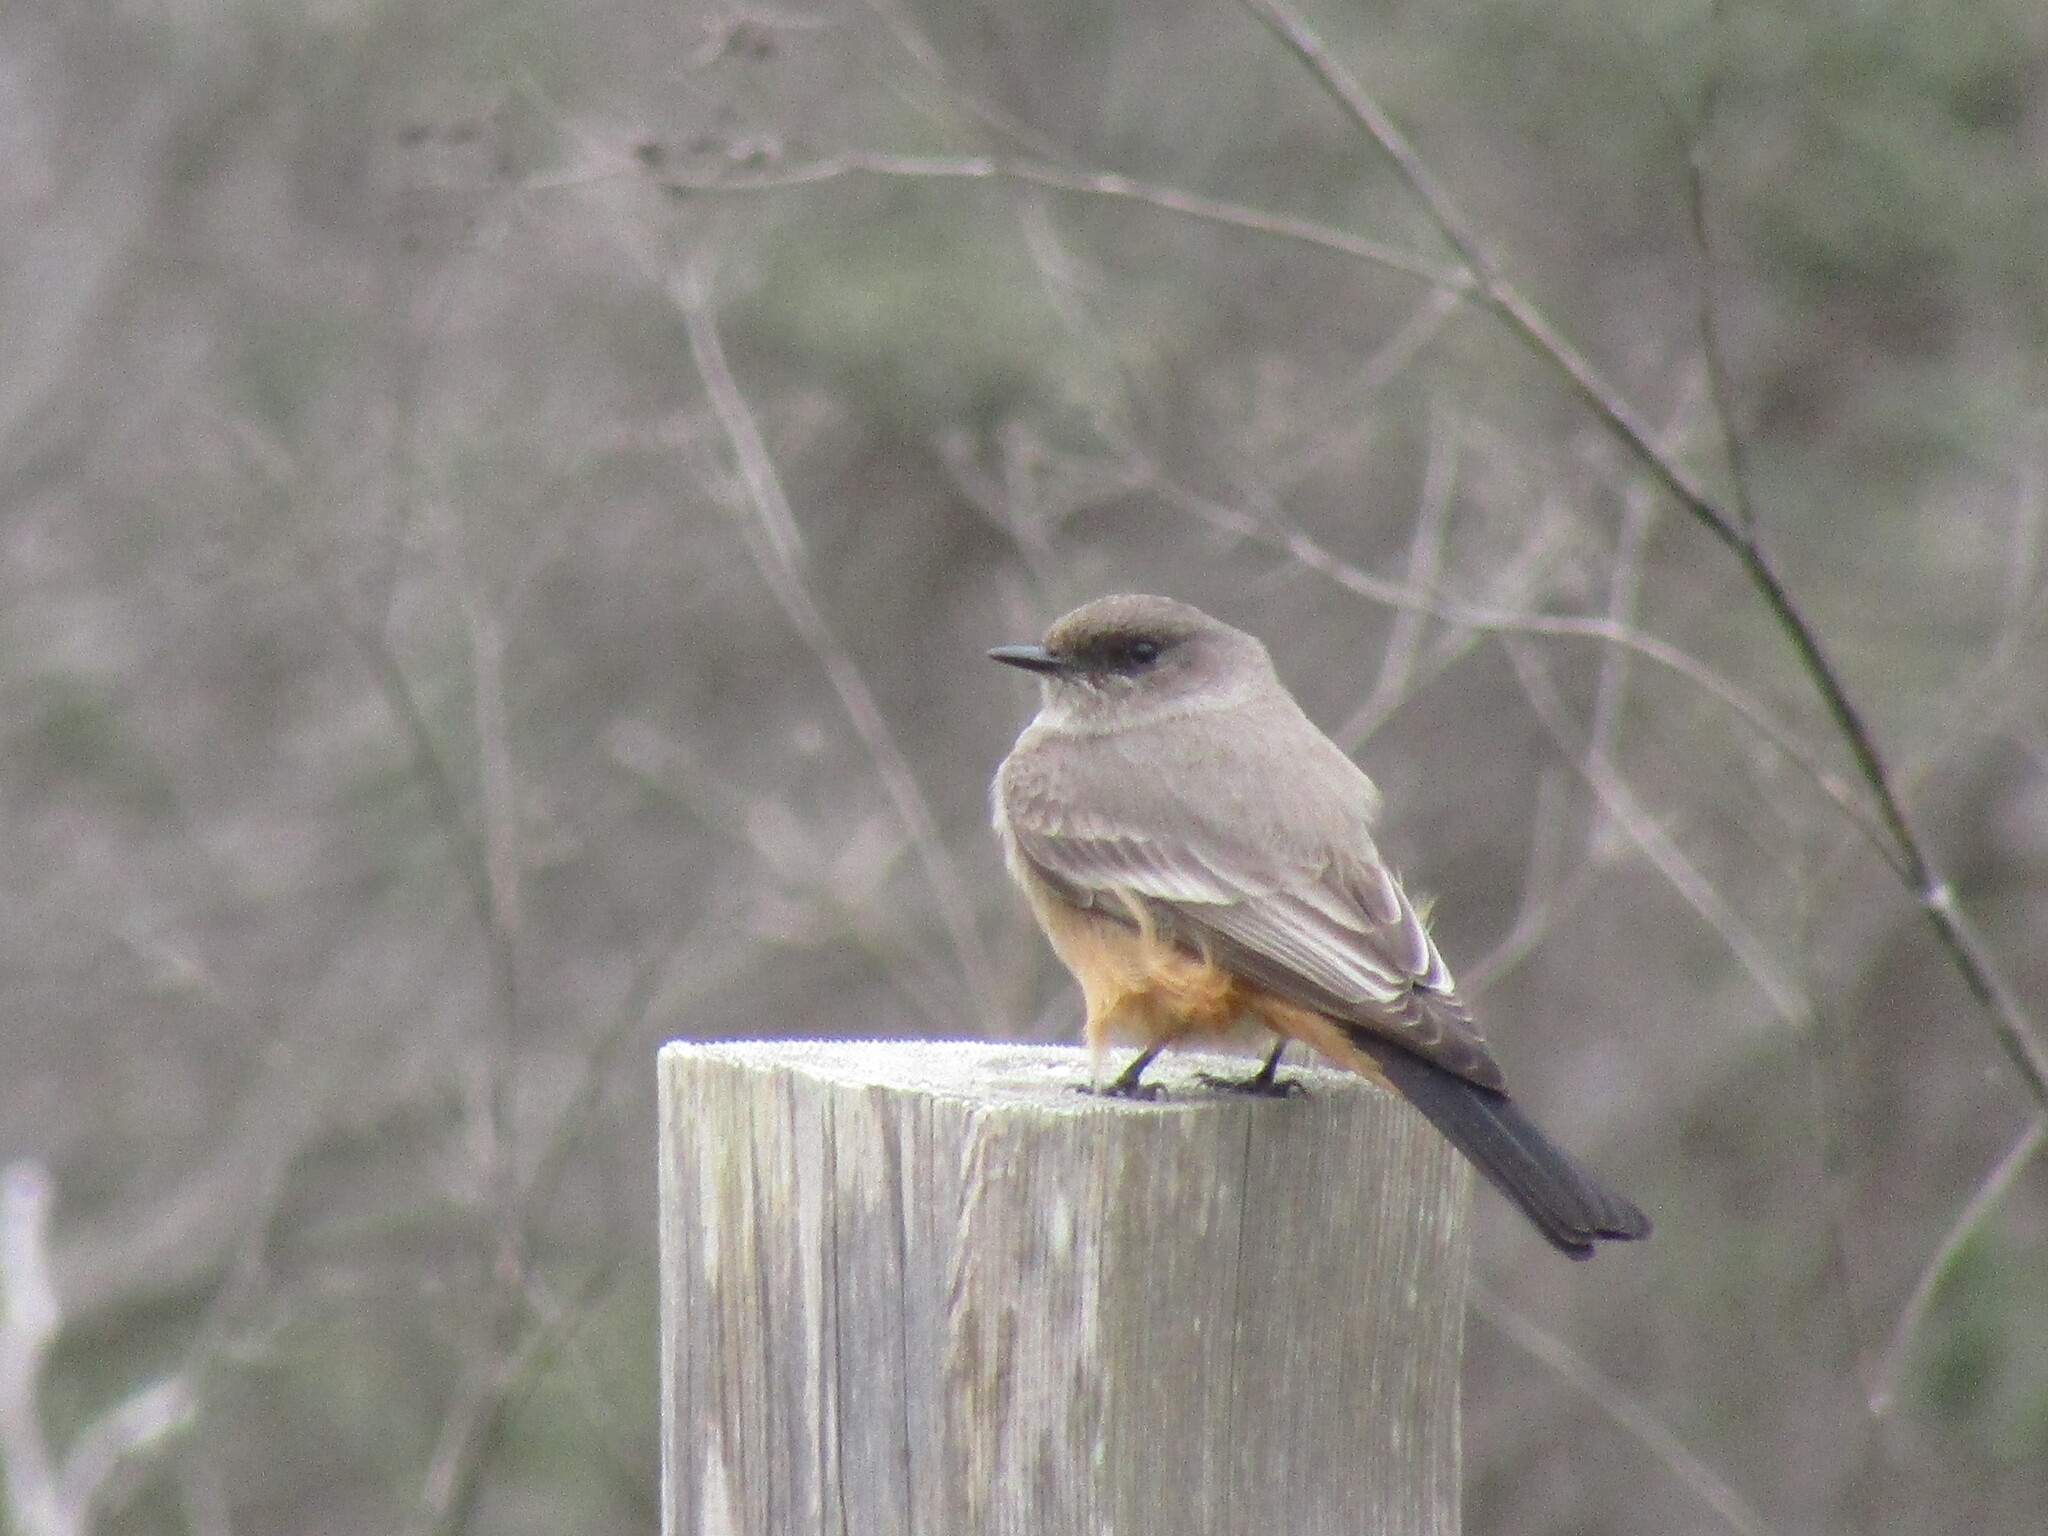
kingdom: Animalia
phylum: Chordata
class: Aves
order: Passeriformes
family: Tyrannidae
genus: Sayornis
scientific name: Sayornis saya
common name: Say's phoebe
